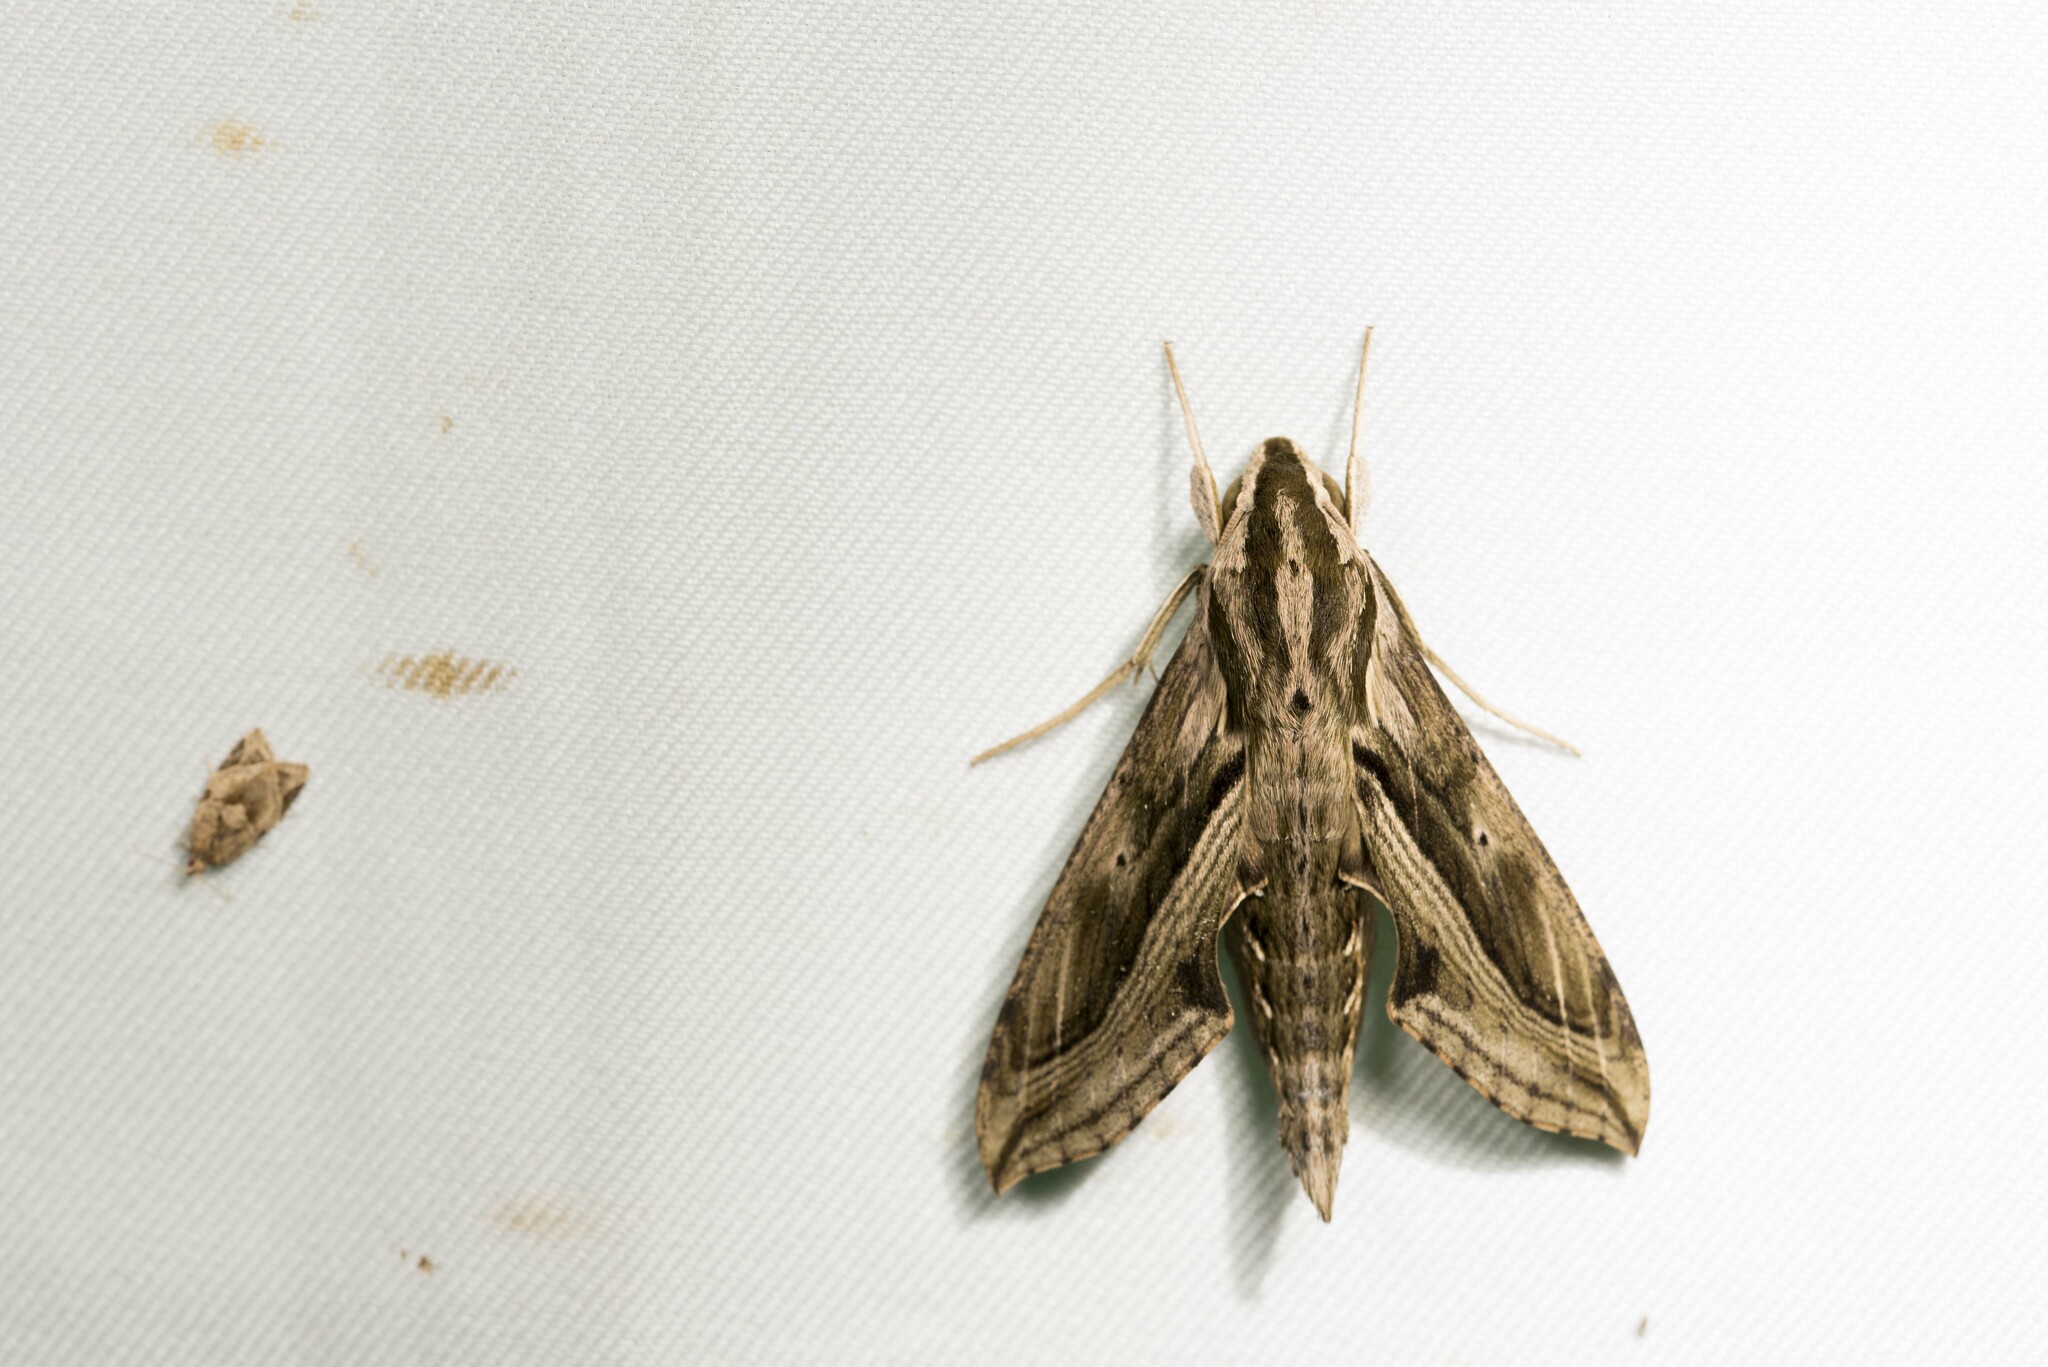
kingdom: Animalia
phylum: Arthropoda
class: Insecta
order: Lepidoptera
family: Sphingidae
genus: Hippotion
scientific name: Hippotion velox
